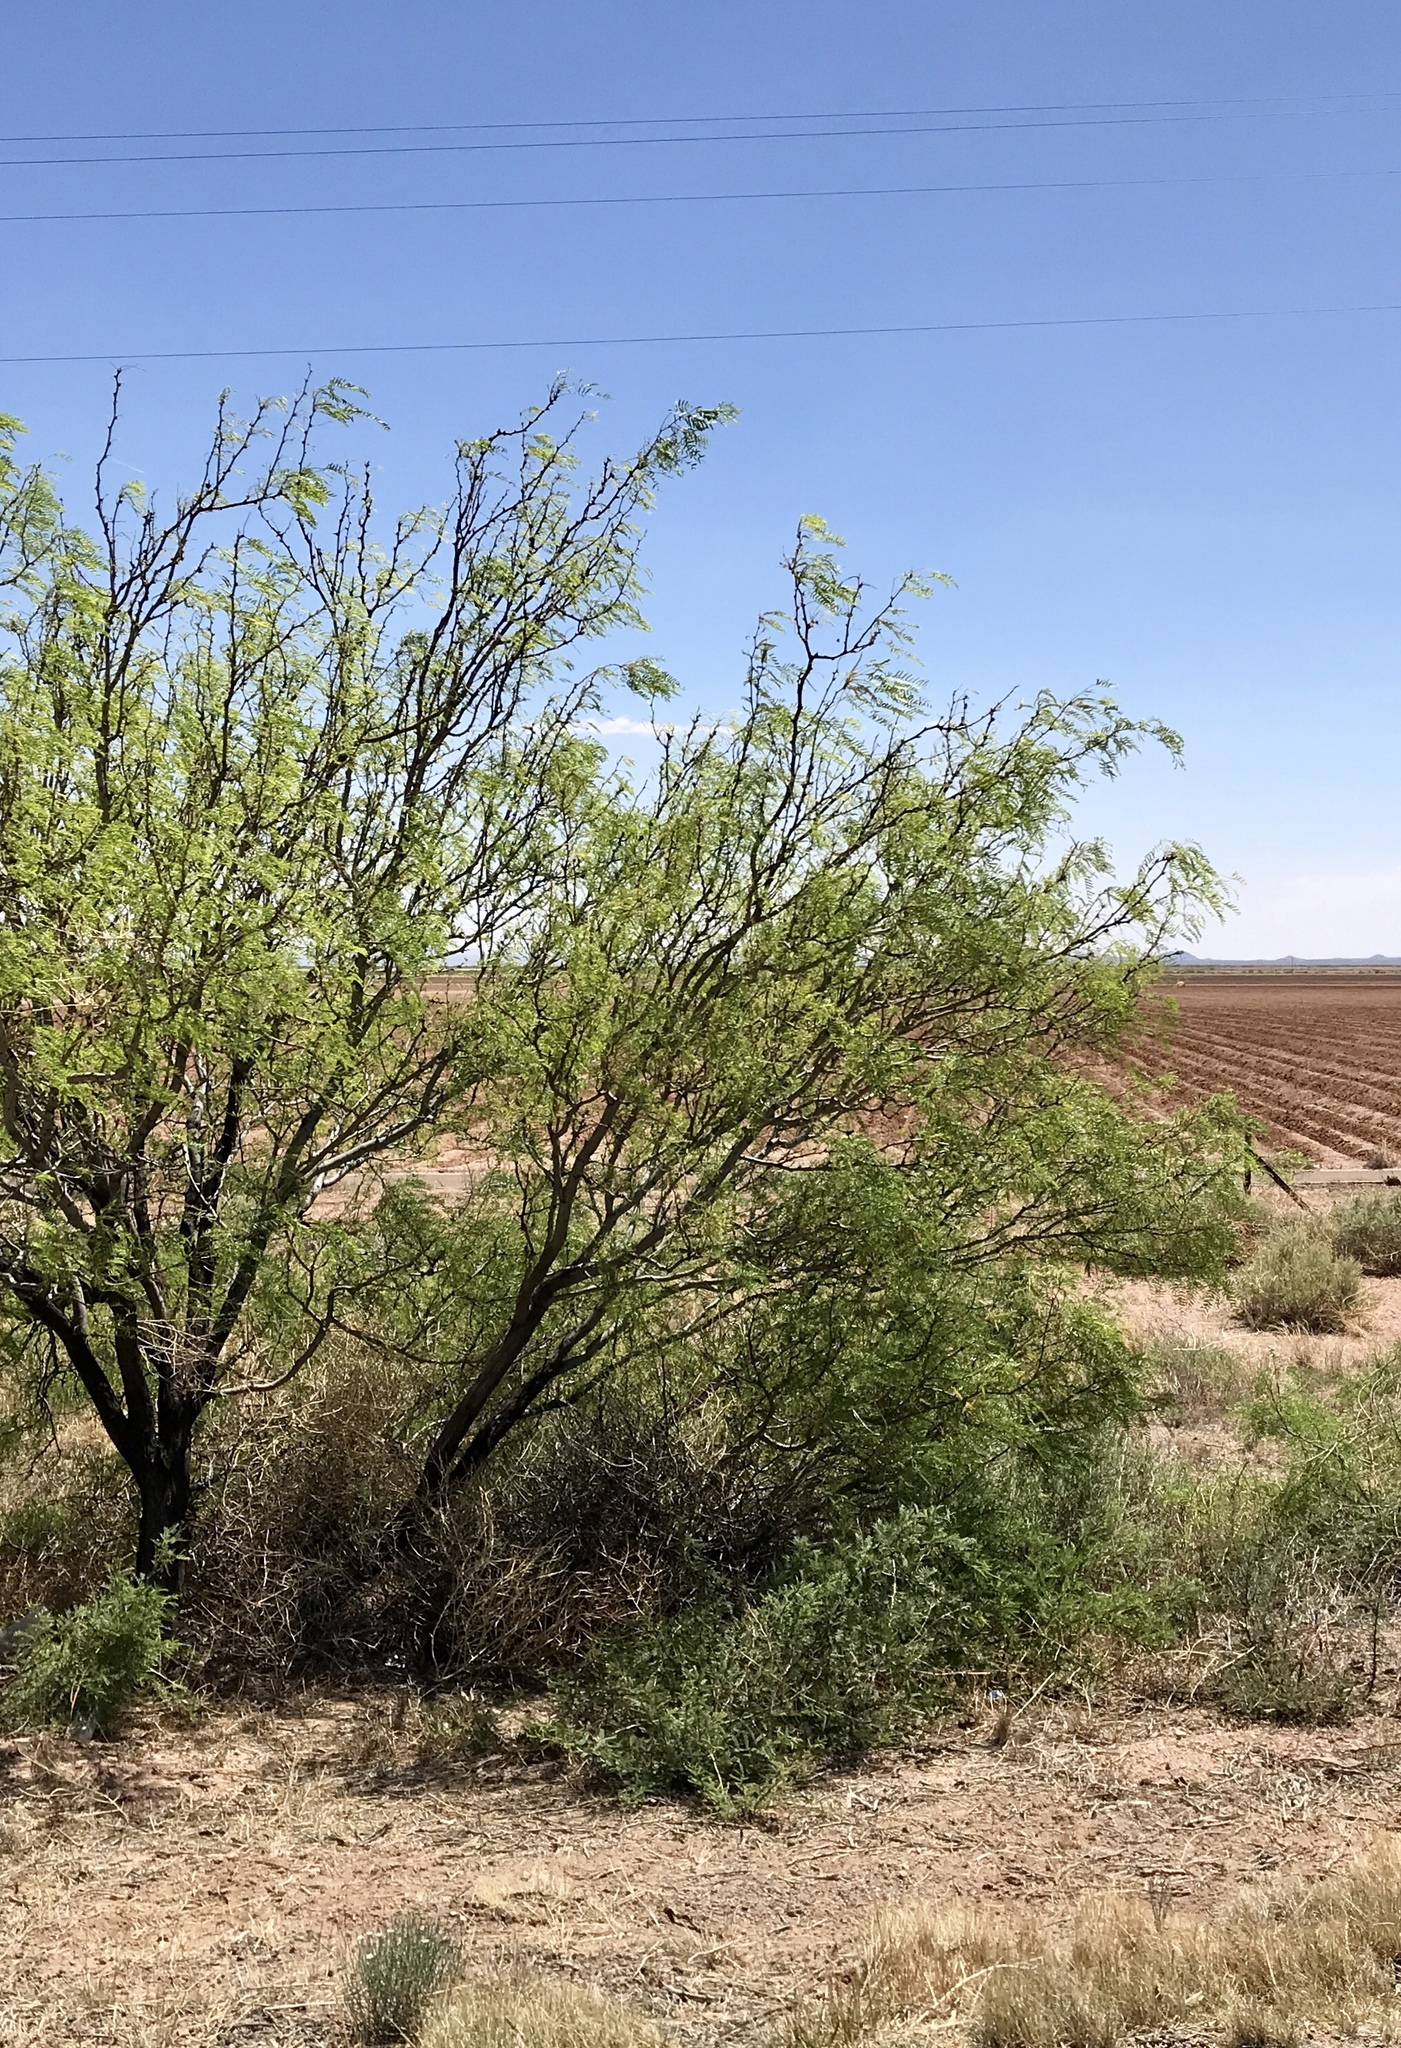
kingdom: Plantae
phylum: Tracheophyta
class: Magnoliopsida
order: Fabales
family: Fabaceae
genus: Prosopis
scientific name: Prosopis glandulosa
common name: Honey mesquite
